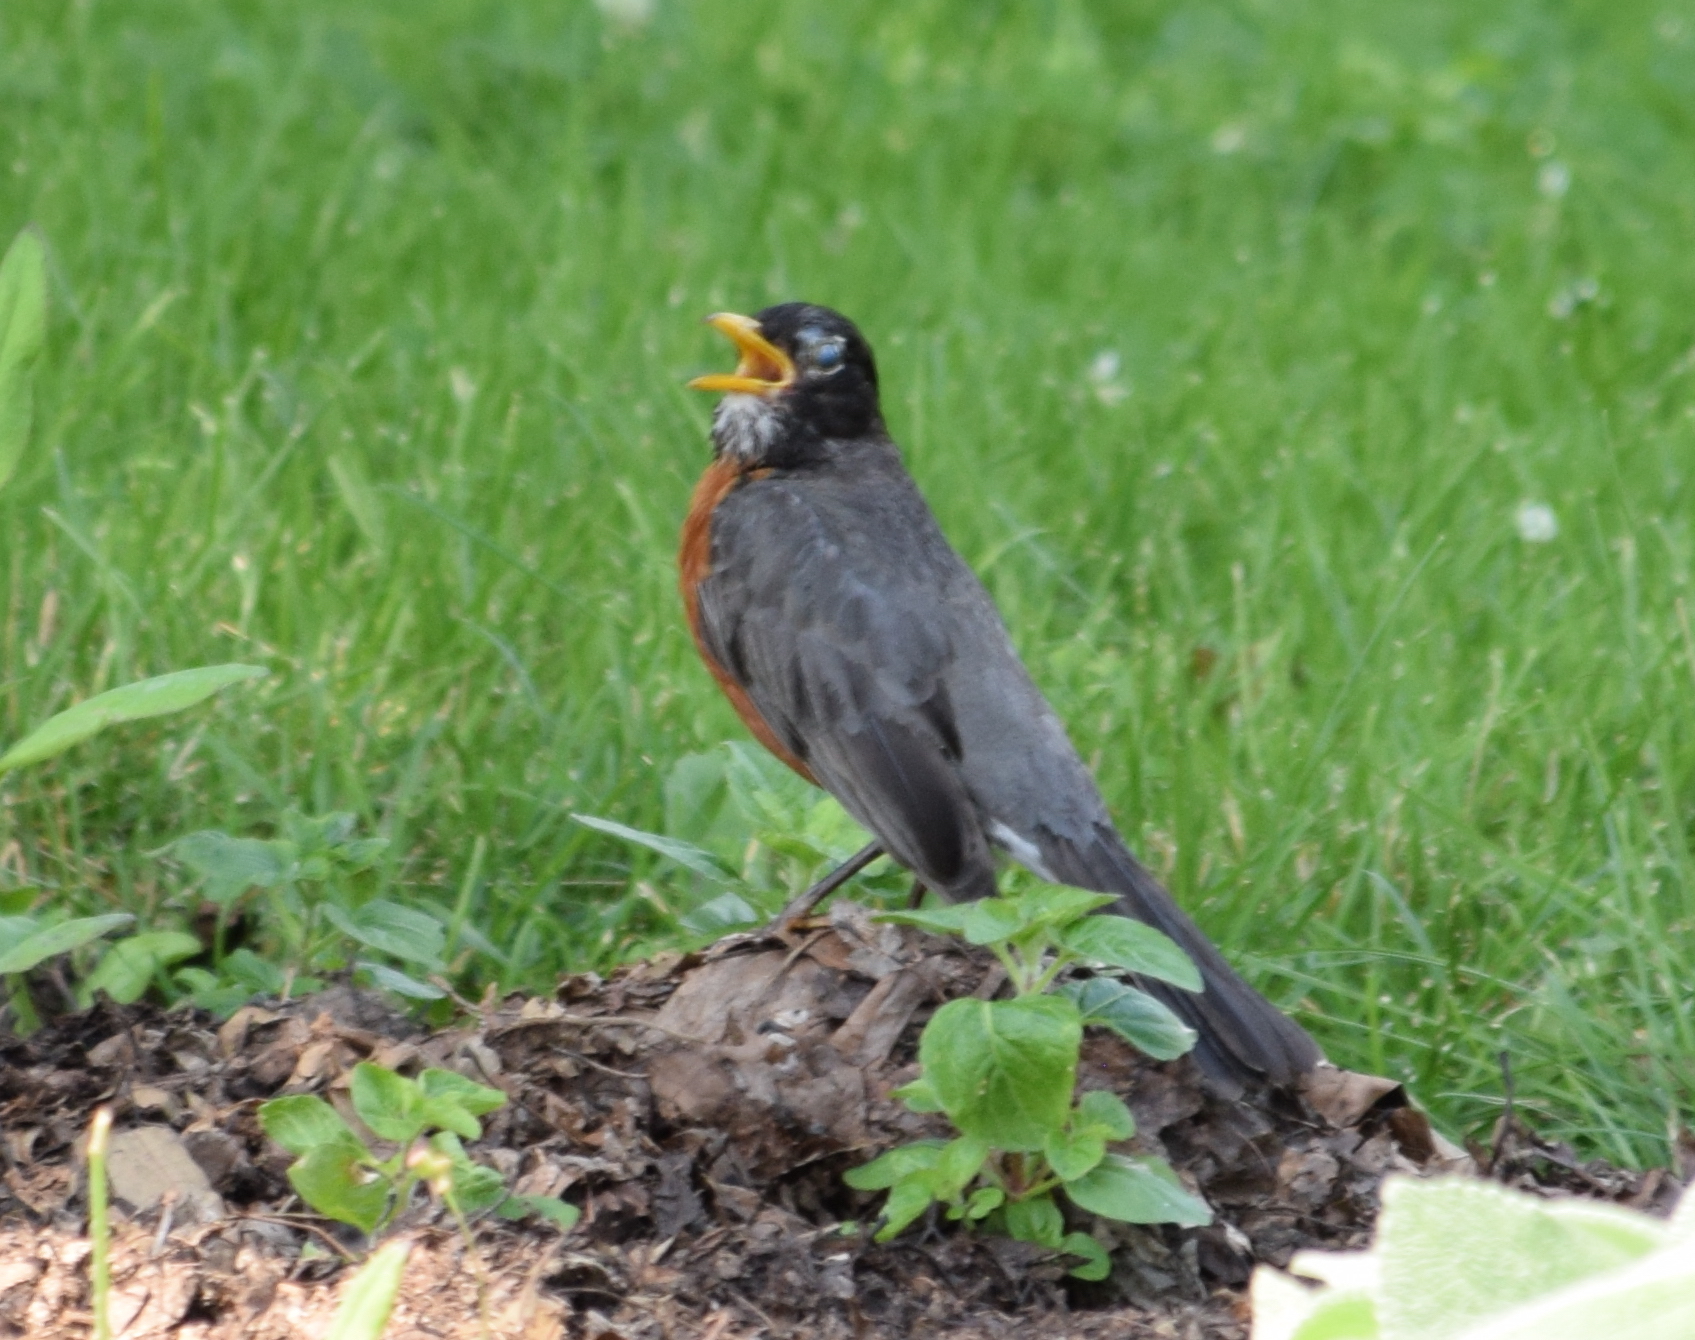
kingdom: Animalia
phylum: Chordata
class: Aves
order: Passeriformes
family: Turdidae
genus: Turdus
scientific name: Turdus migratorius
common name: American robin
